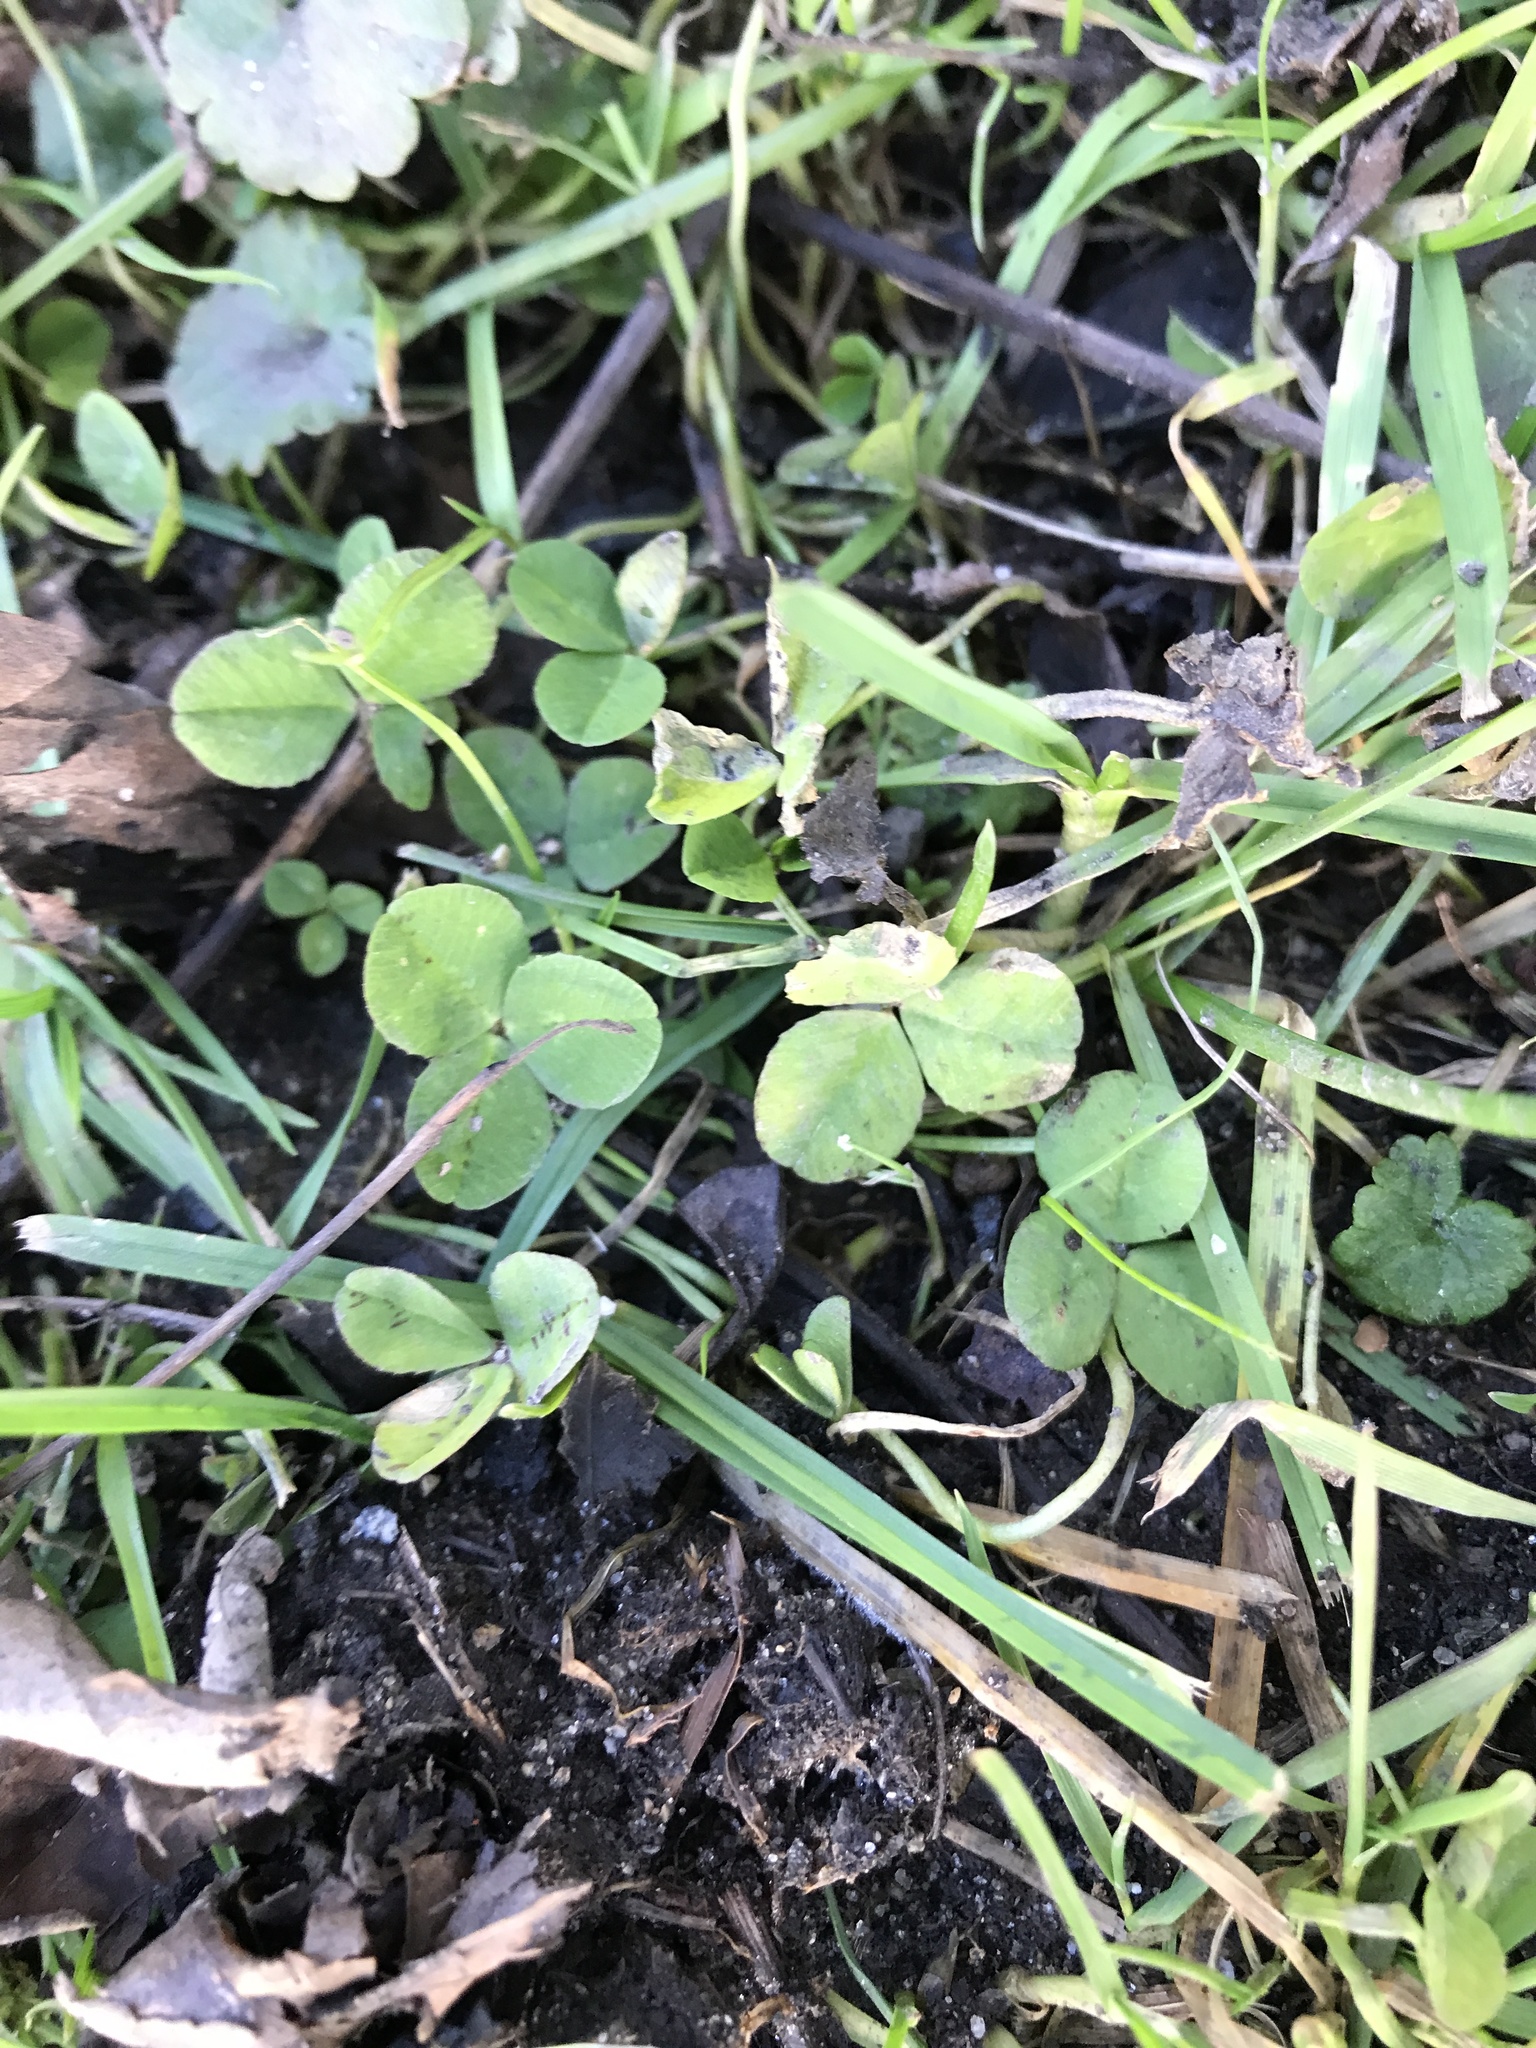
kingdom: Plantae
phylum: Tracheophyta
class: Magnoliopsida
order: Fabales
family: Fabaceae
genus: Trifolium
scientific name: Trifolium repens
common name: White clover
